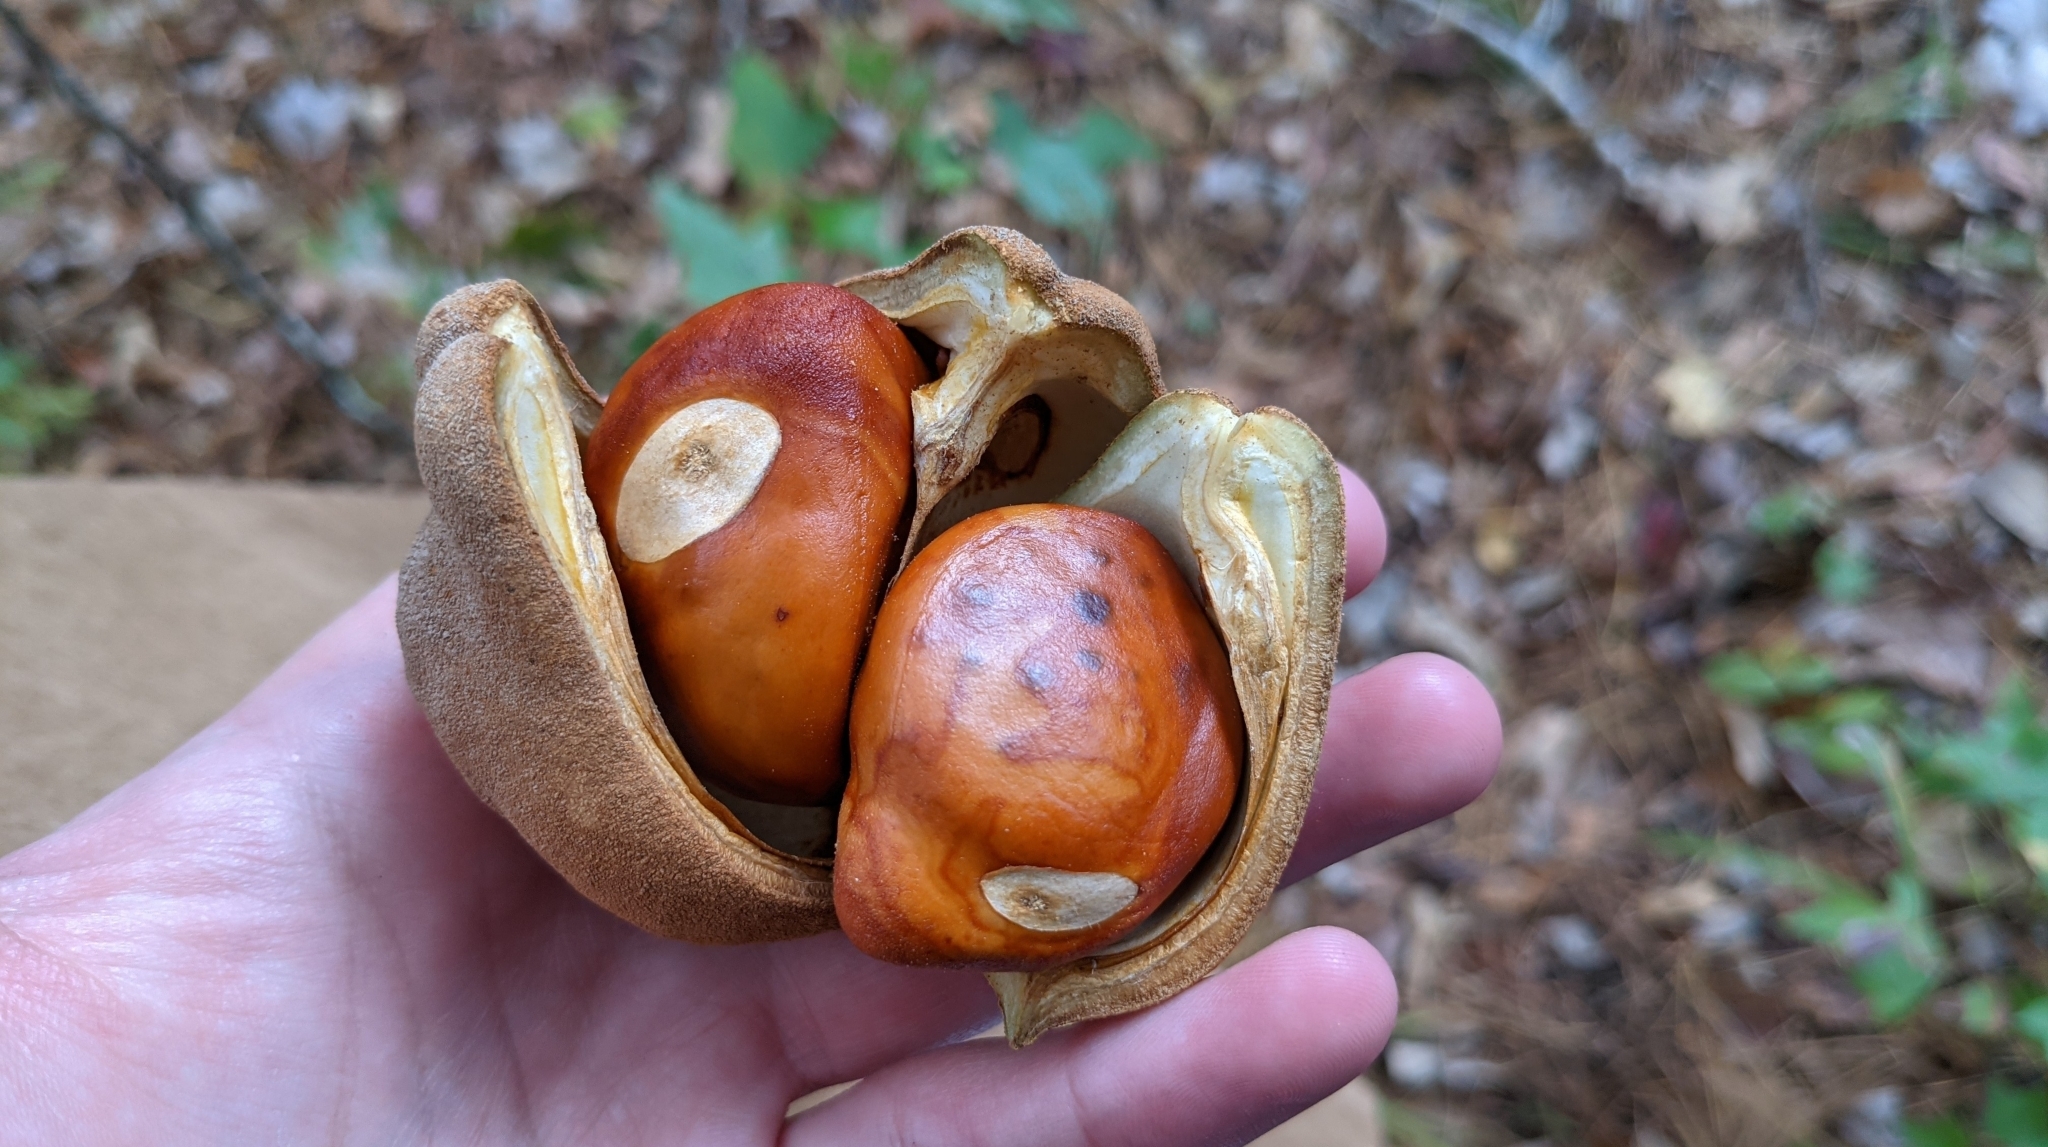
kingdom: Plantae
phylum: Tracheophyta
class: Magnoliopsida
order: Sapindales
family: Sapindaceae
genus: Aesculus
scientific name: Aesculus pavia
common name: Red buckeye
